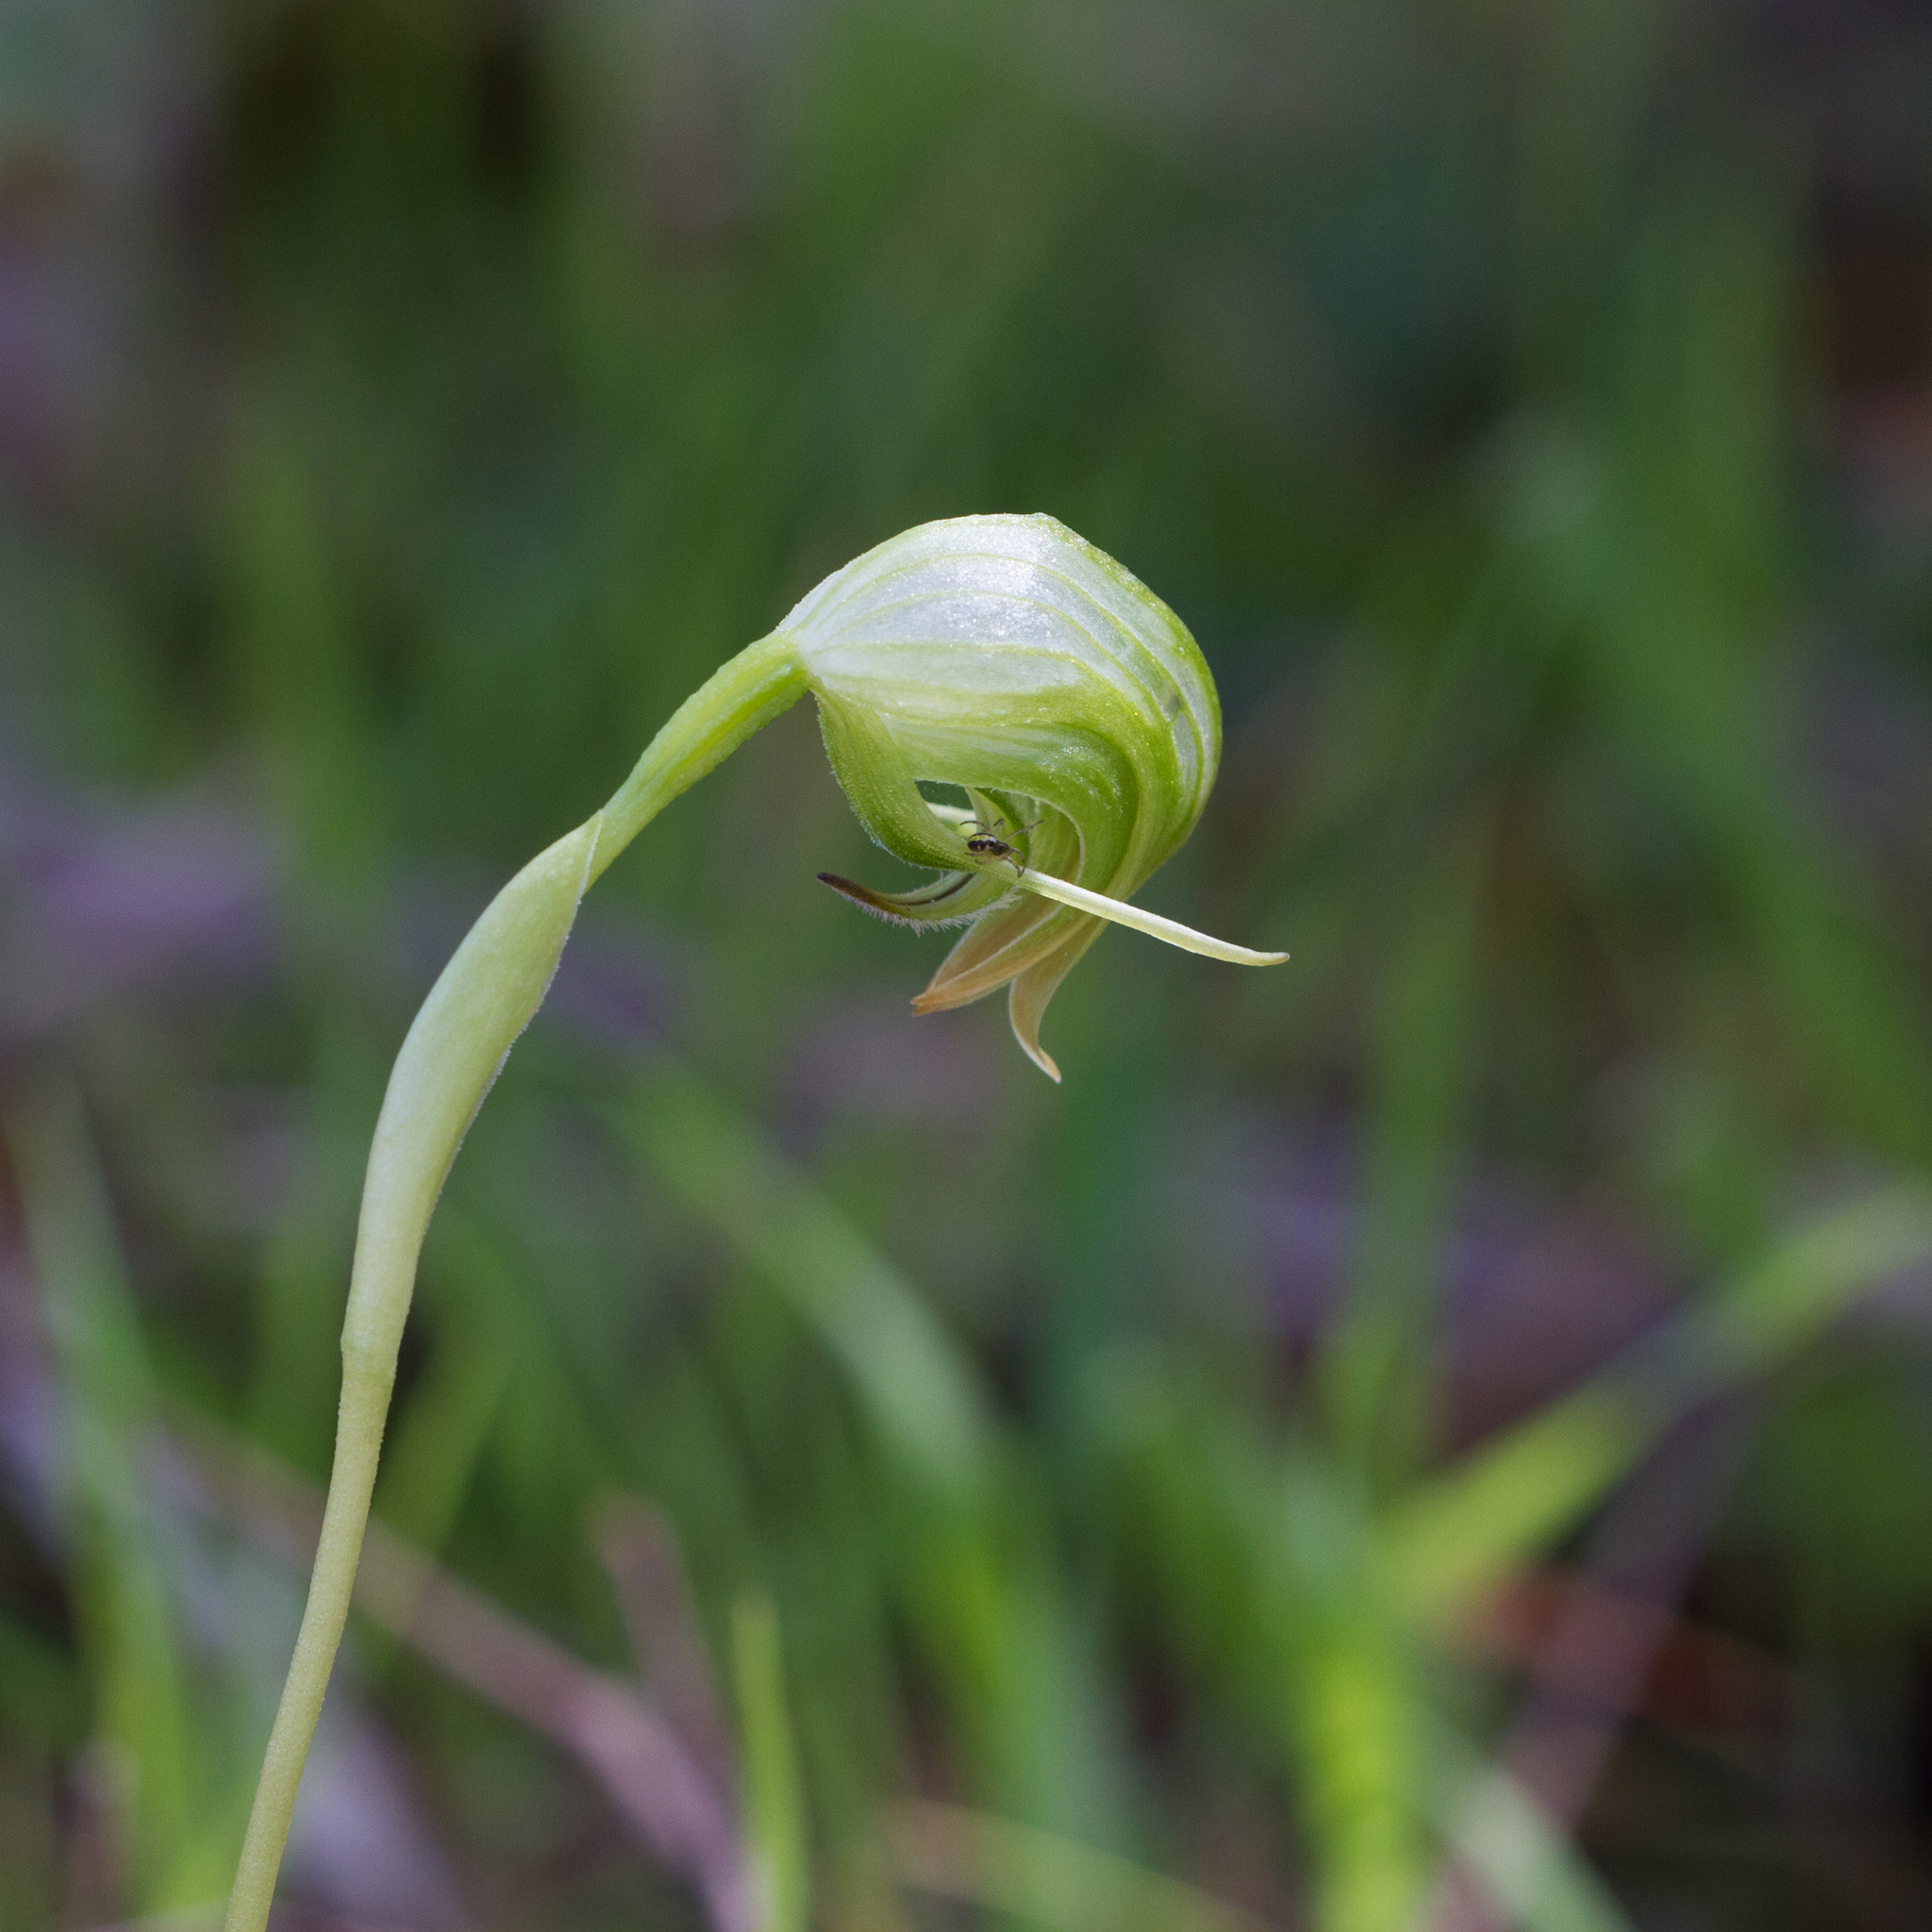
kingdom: Plantae
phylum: Tracheophyta
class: Liliopsida
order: Asparagales
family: Orchidaceae
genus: Pterostylis
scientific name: Pterostylis nutans
